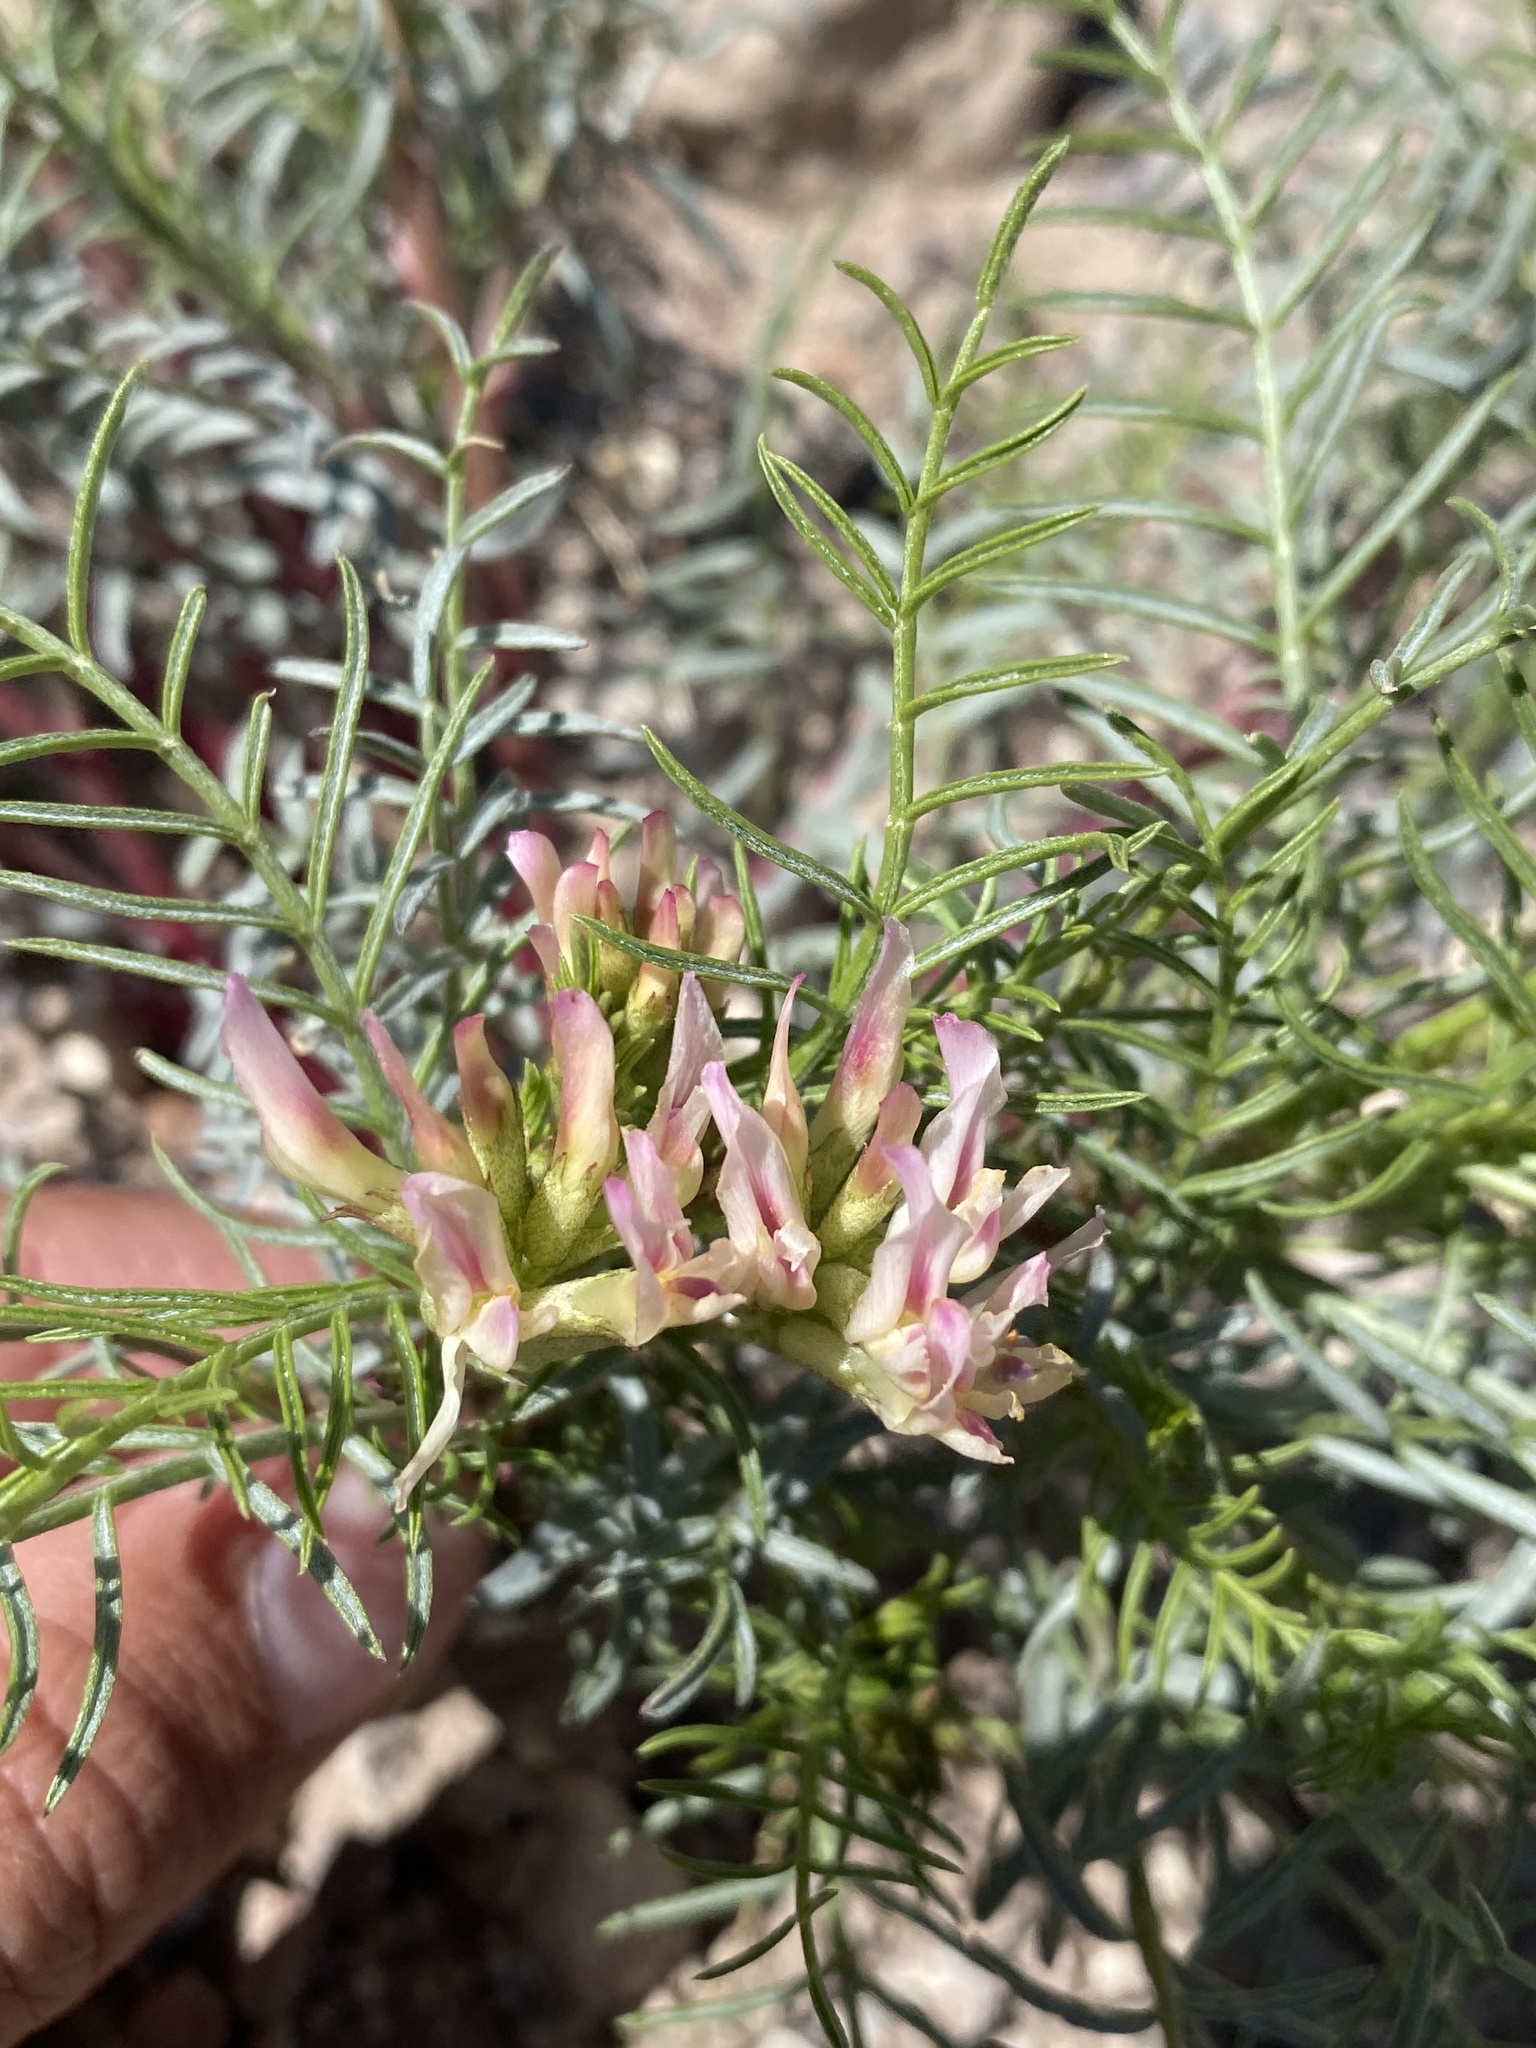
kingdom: Plantae
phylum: Tracheophyta
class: Magnoliopsida
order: Fabales
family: Fabaceae
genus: Astragalus
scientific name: Astragalus tetrapterus
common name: Four-wing milk-vetch
